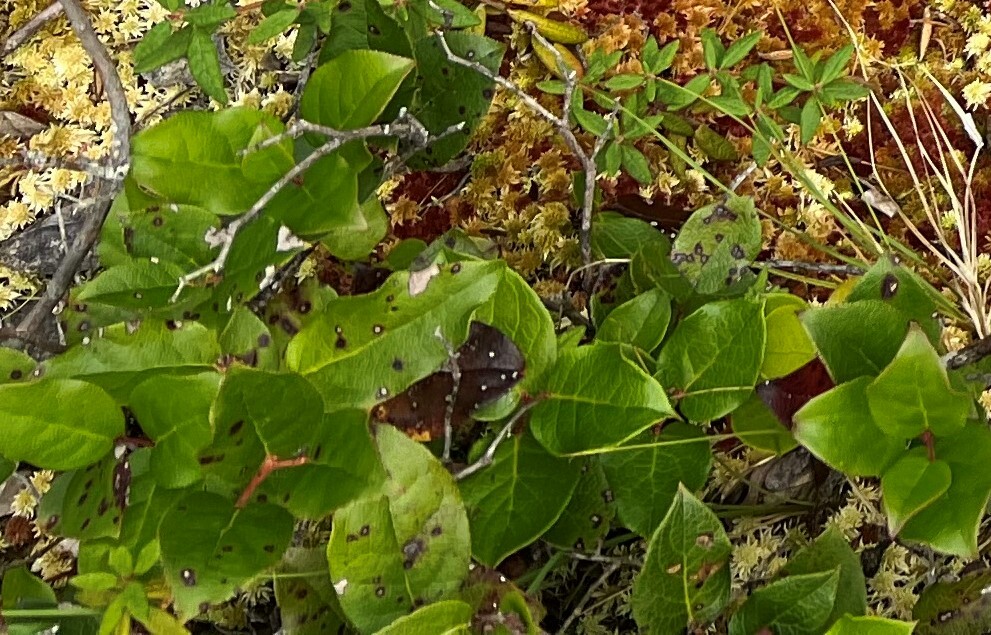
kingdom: Plantae
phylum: Tracheophyta
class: Magnoliopsida
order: Ericales
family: Ericaceae
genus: Gaultheria
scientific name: Gaultheria shallon
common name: Shallon
